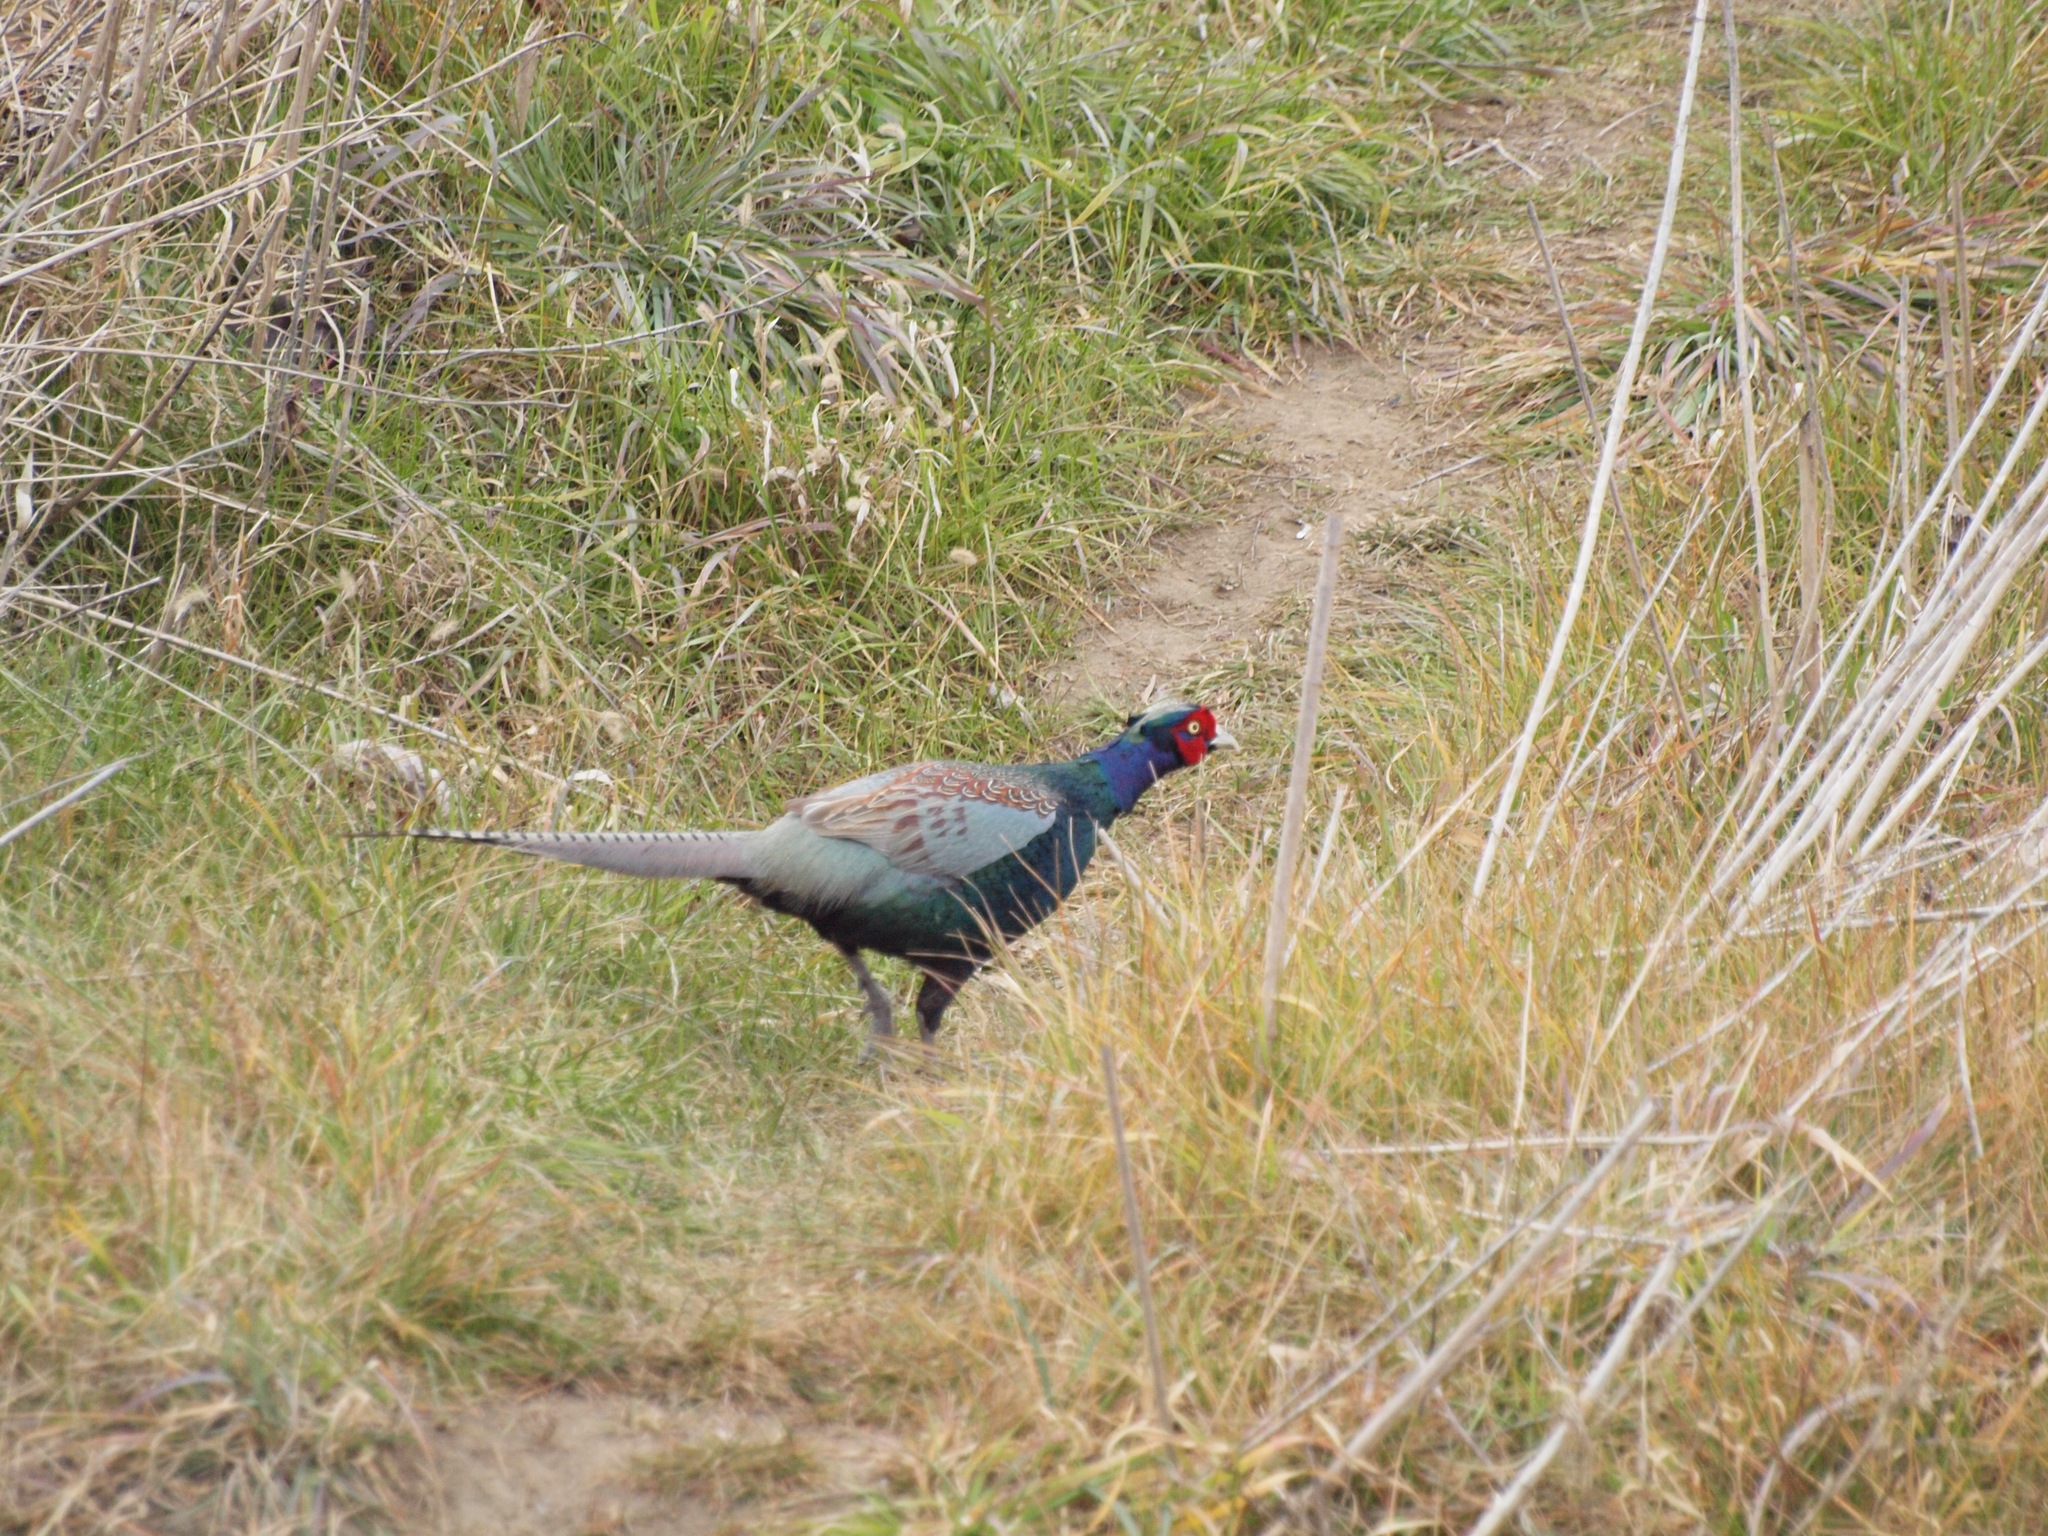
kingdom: Animalia
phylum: Chordata
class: Aves
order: Galliformes
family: Phasianidae
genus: Phasianus
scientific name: Phasianus versicolor
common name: Green pheasant
